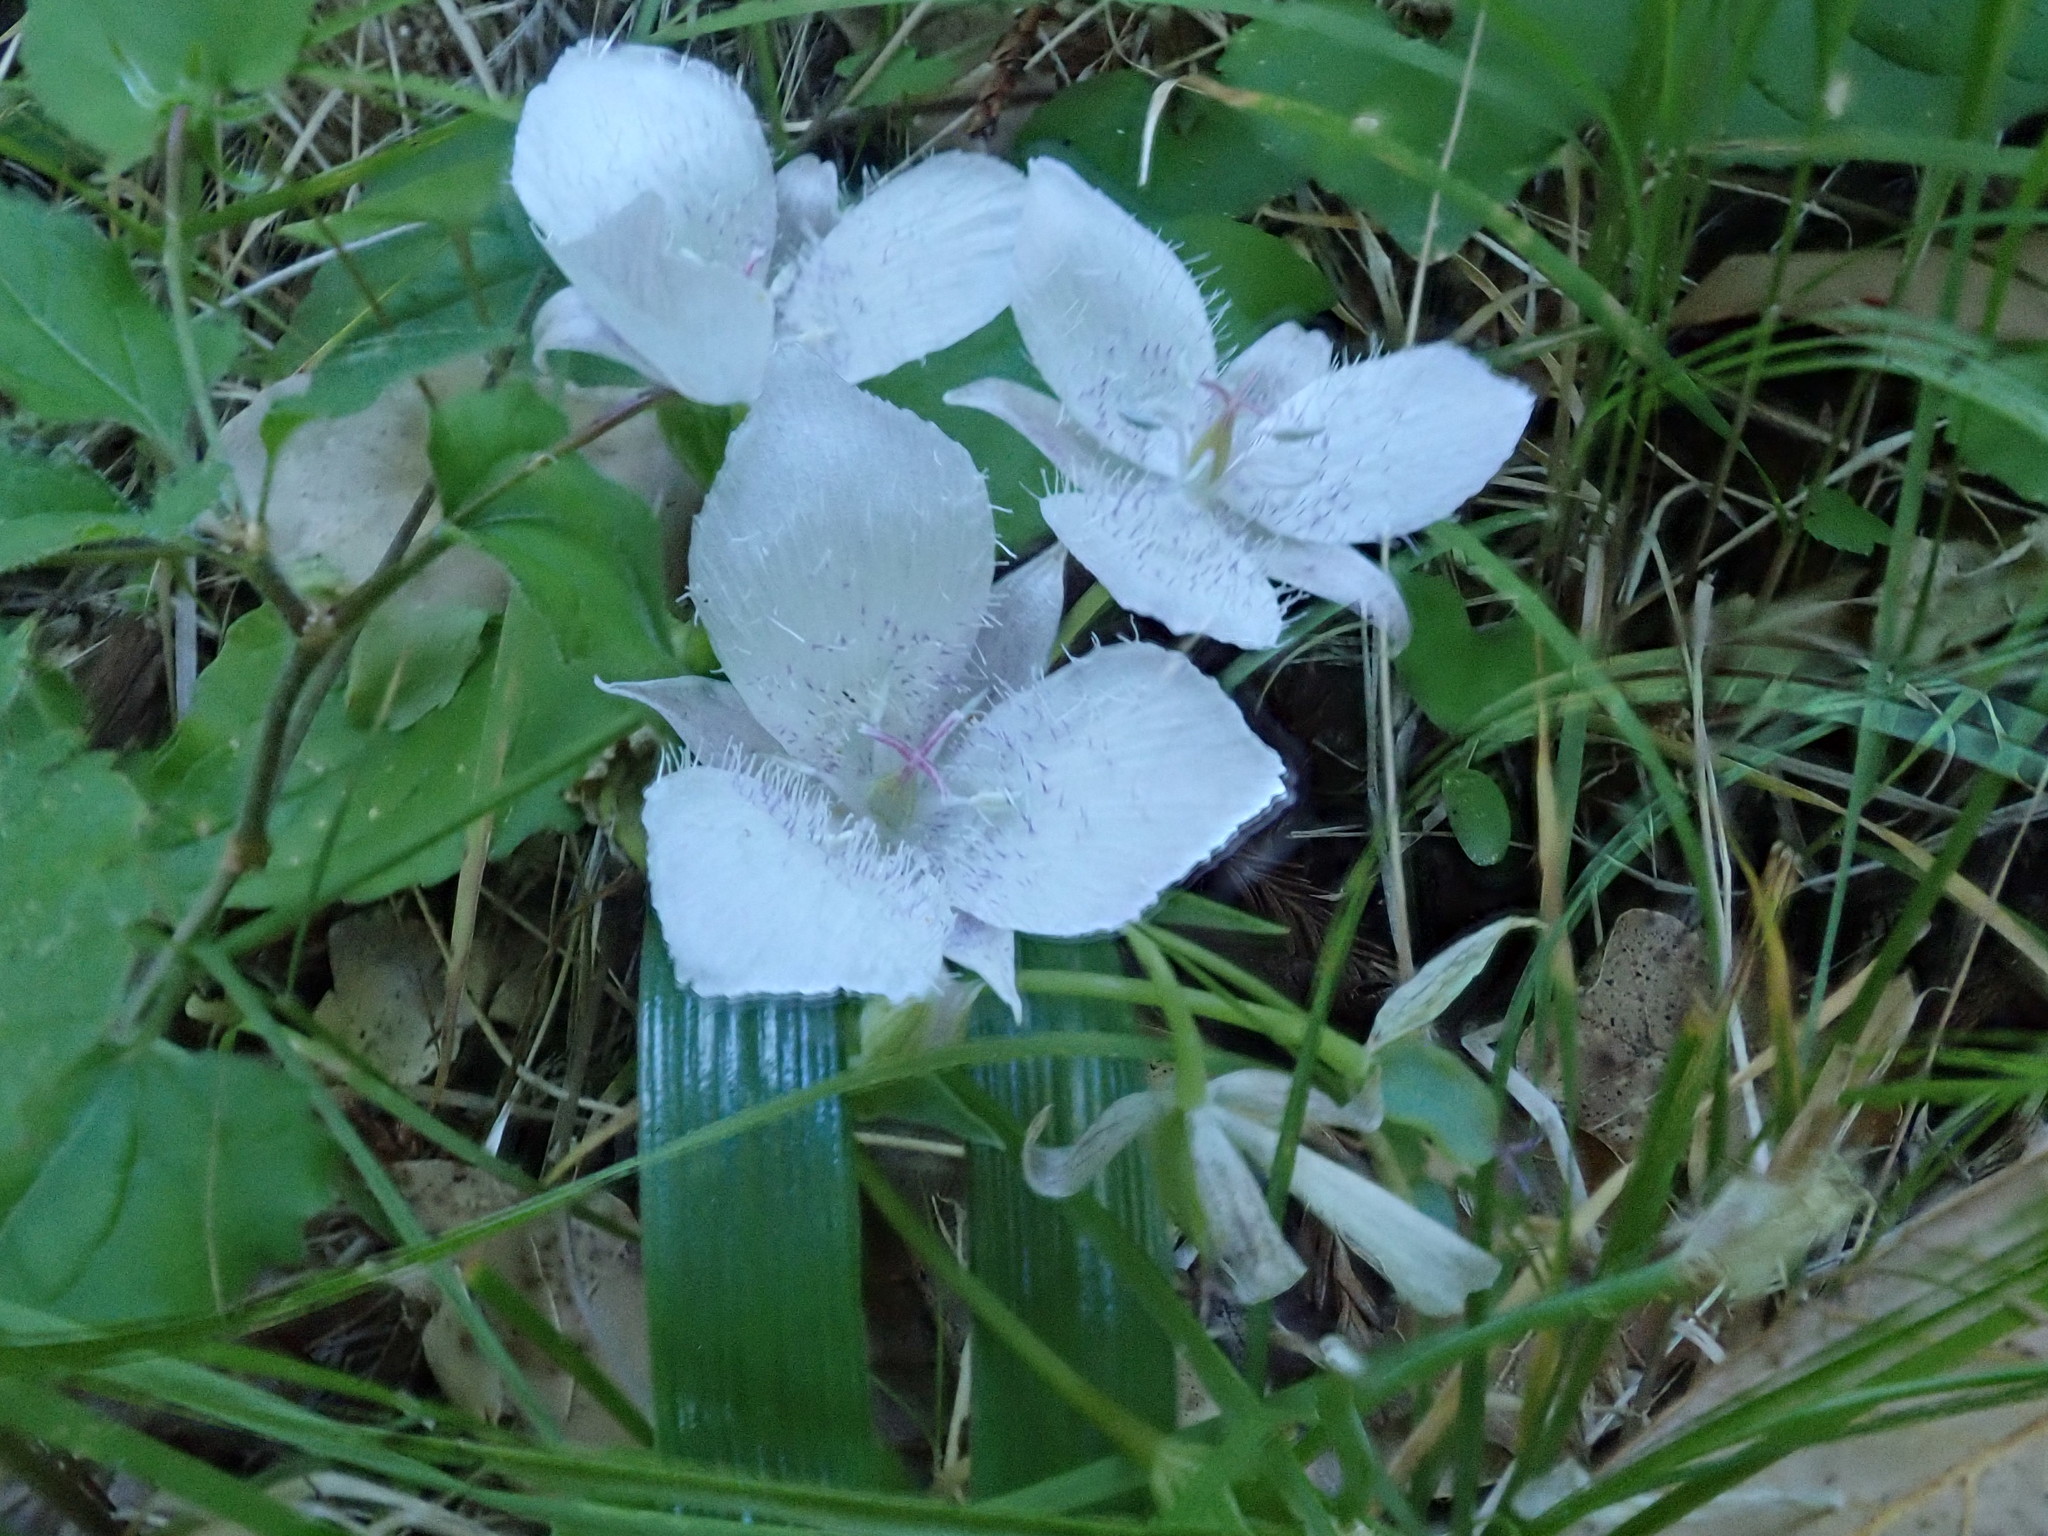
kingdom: Plantae
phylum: Tracheophyta
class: Liliopsida
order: Liliales
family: Liliaceae
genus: Calochortus
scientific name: Calochortus tolmiei
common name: Pussy-ears
